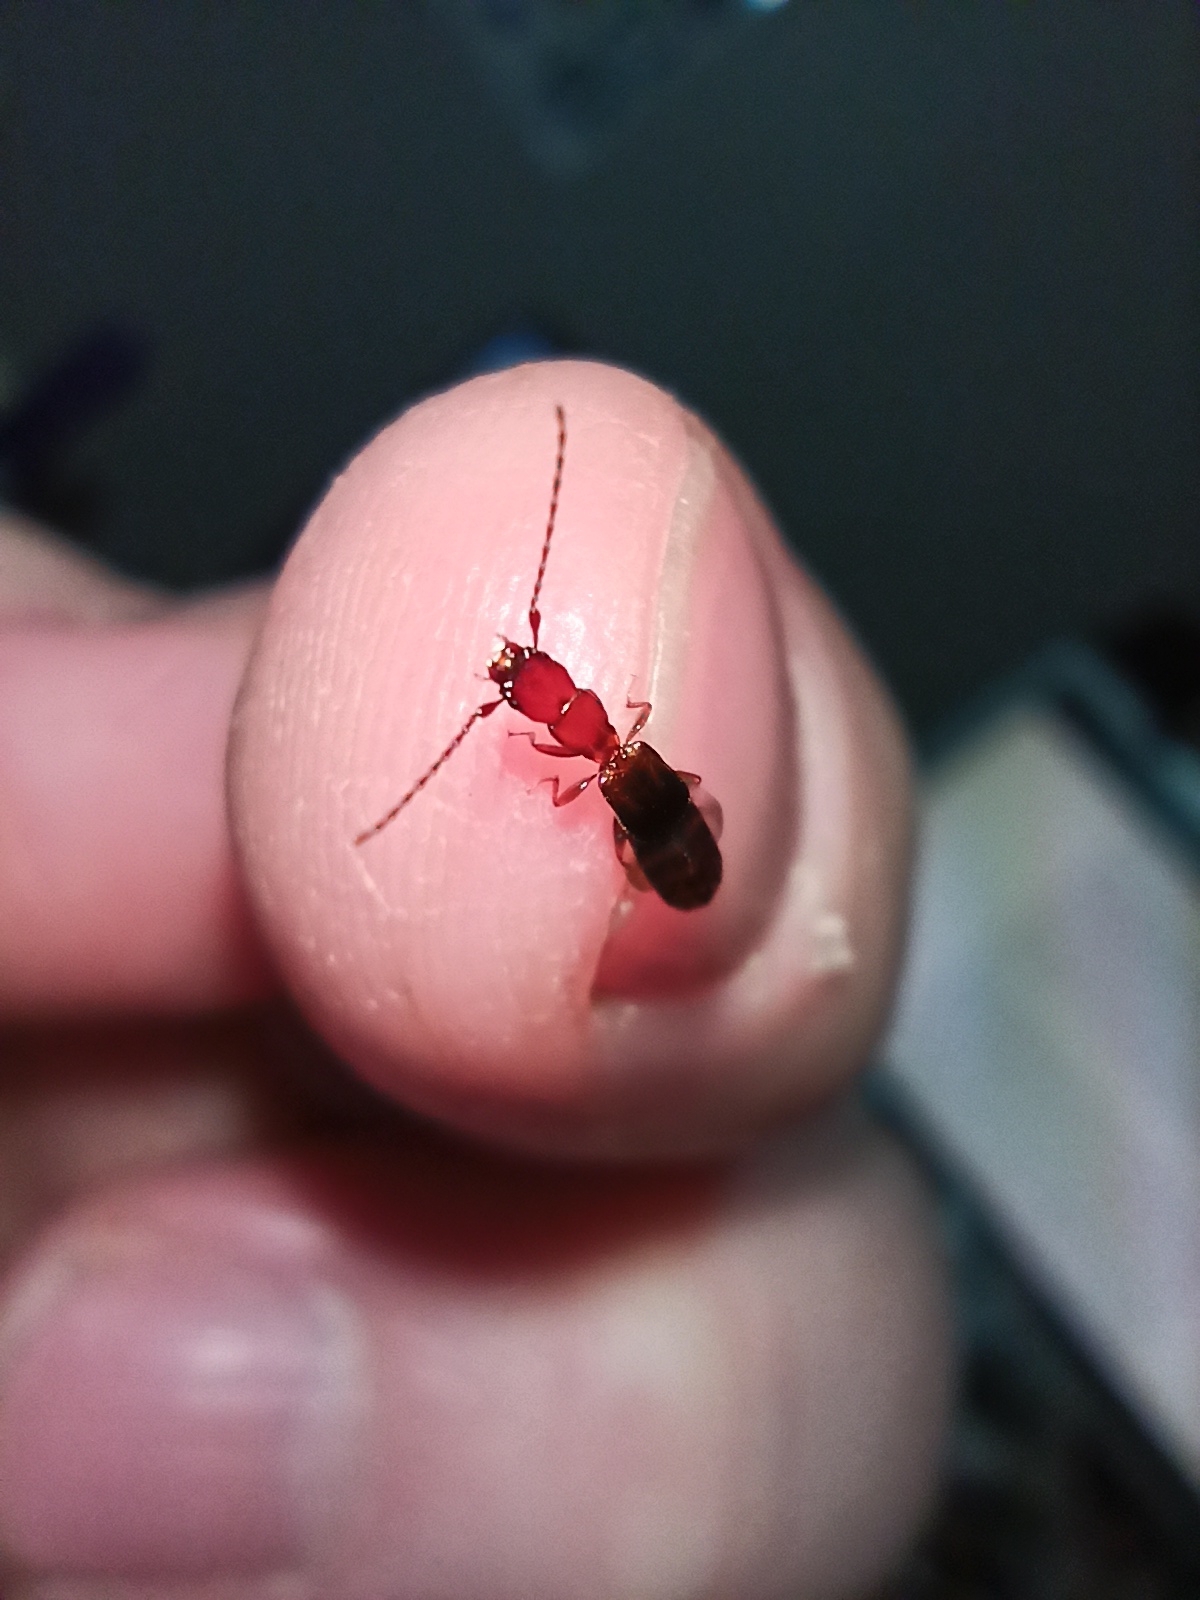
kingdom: Animalia
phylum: Arthropoda
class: Insecta
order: Coleoptera
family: Salpingidae
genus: Diagrypnodes
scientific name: Diagrypnodes
